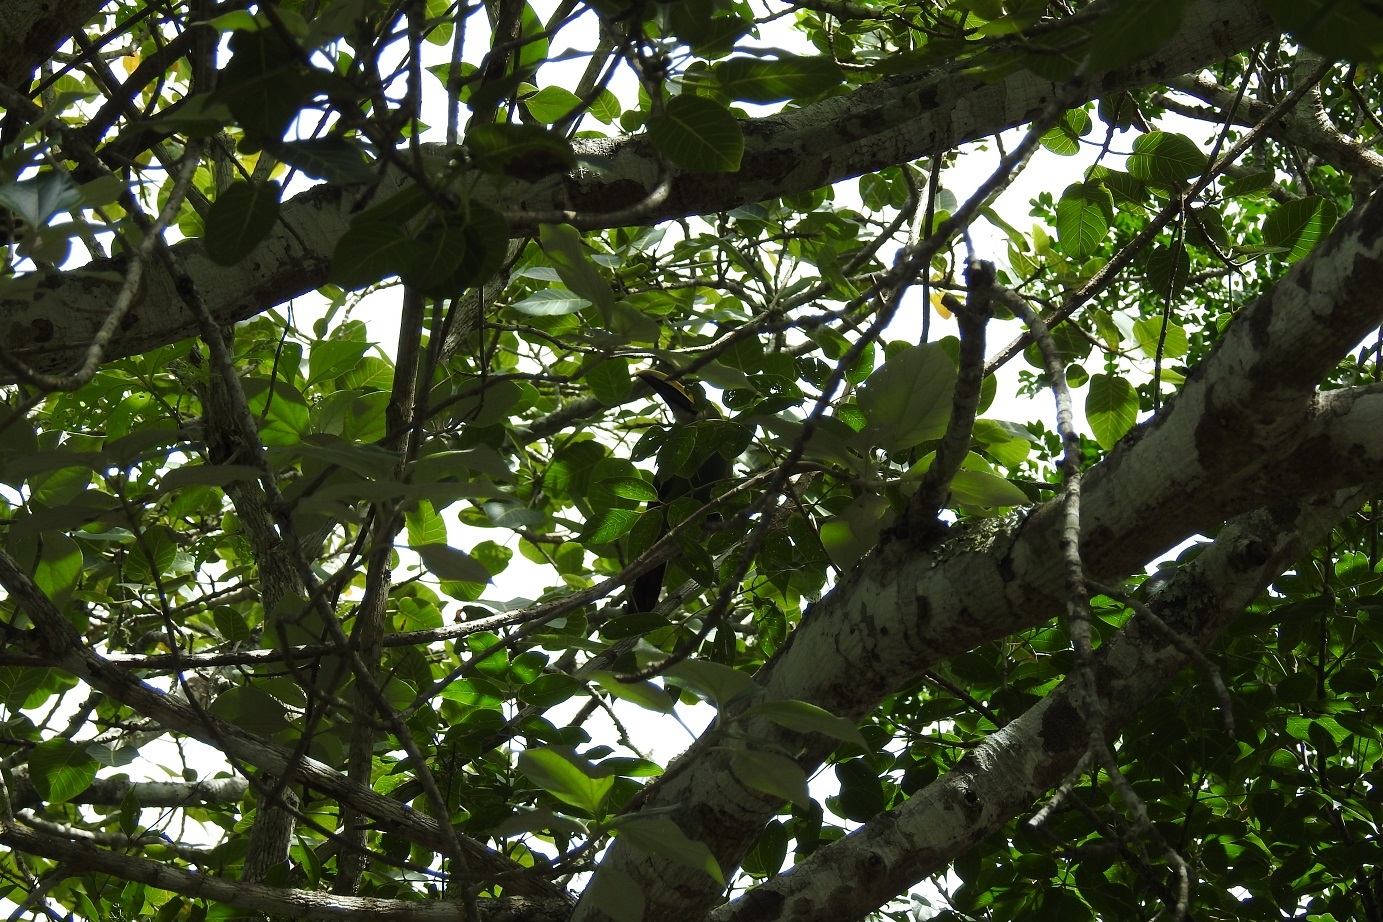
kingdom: Animalia
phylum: Chordata
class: Aves
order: Piciformes
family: Ramphastidae
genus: Aulacorhynchus
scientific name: Aulacorhynchus prasinus
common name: Emerald toucanet
